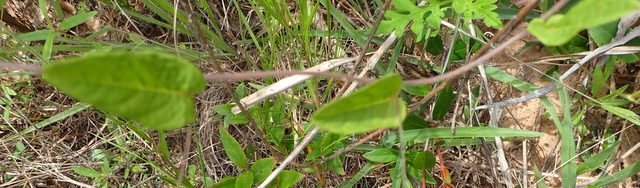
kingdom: Plantae
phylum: Tracheophyta
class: Magnoliopsida
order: Solanales
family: Convolvulaceae
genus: Stylisma
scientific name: Stylisma humistrata
